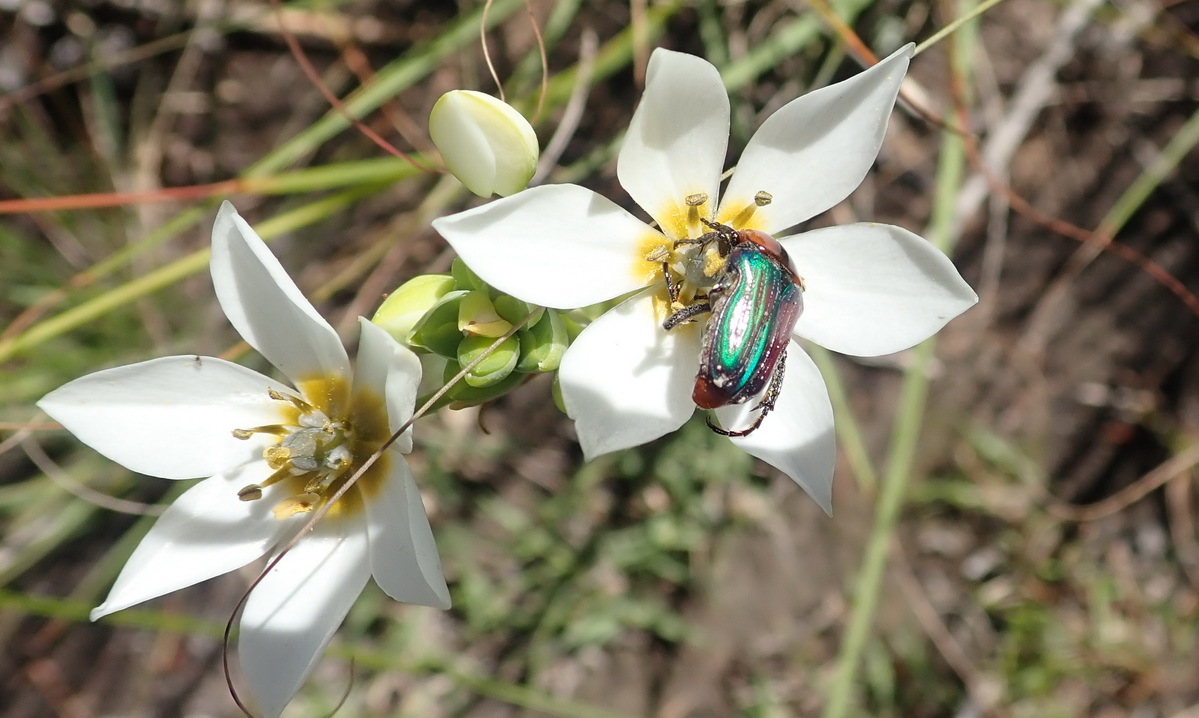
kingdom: Plantae
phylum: Tracheophyta
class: Liliopsida
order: Asparagales
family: Asparagaceae
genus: Ornithogalum
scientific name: Ornithogalum dubium
